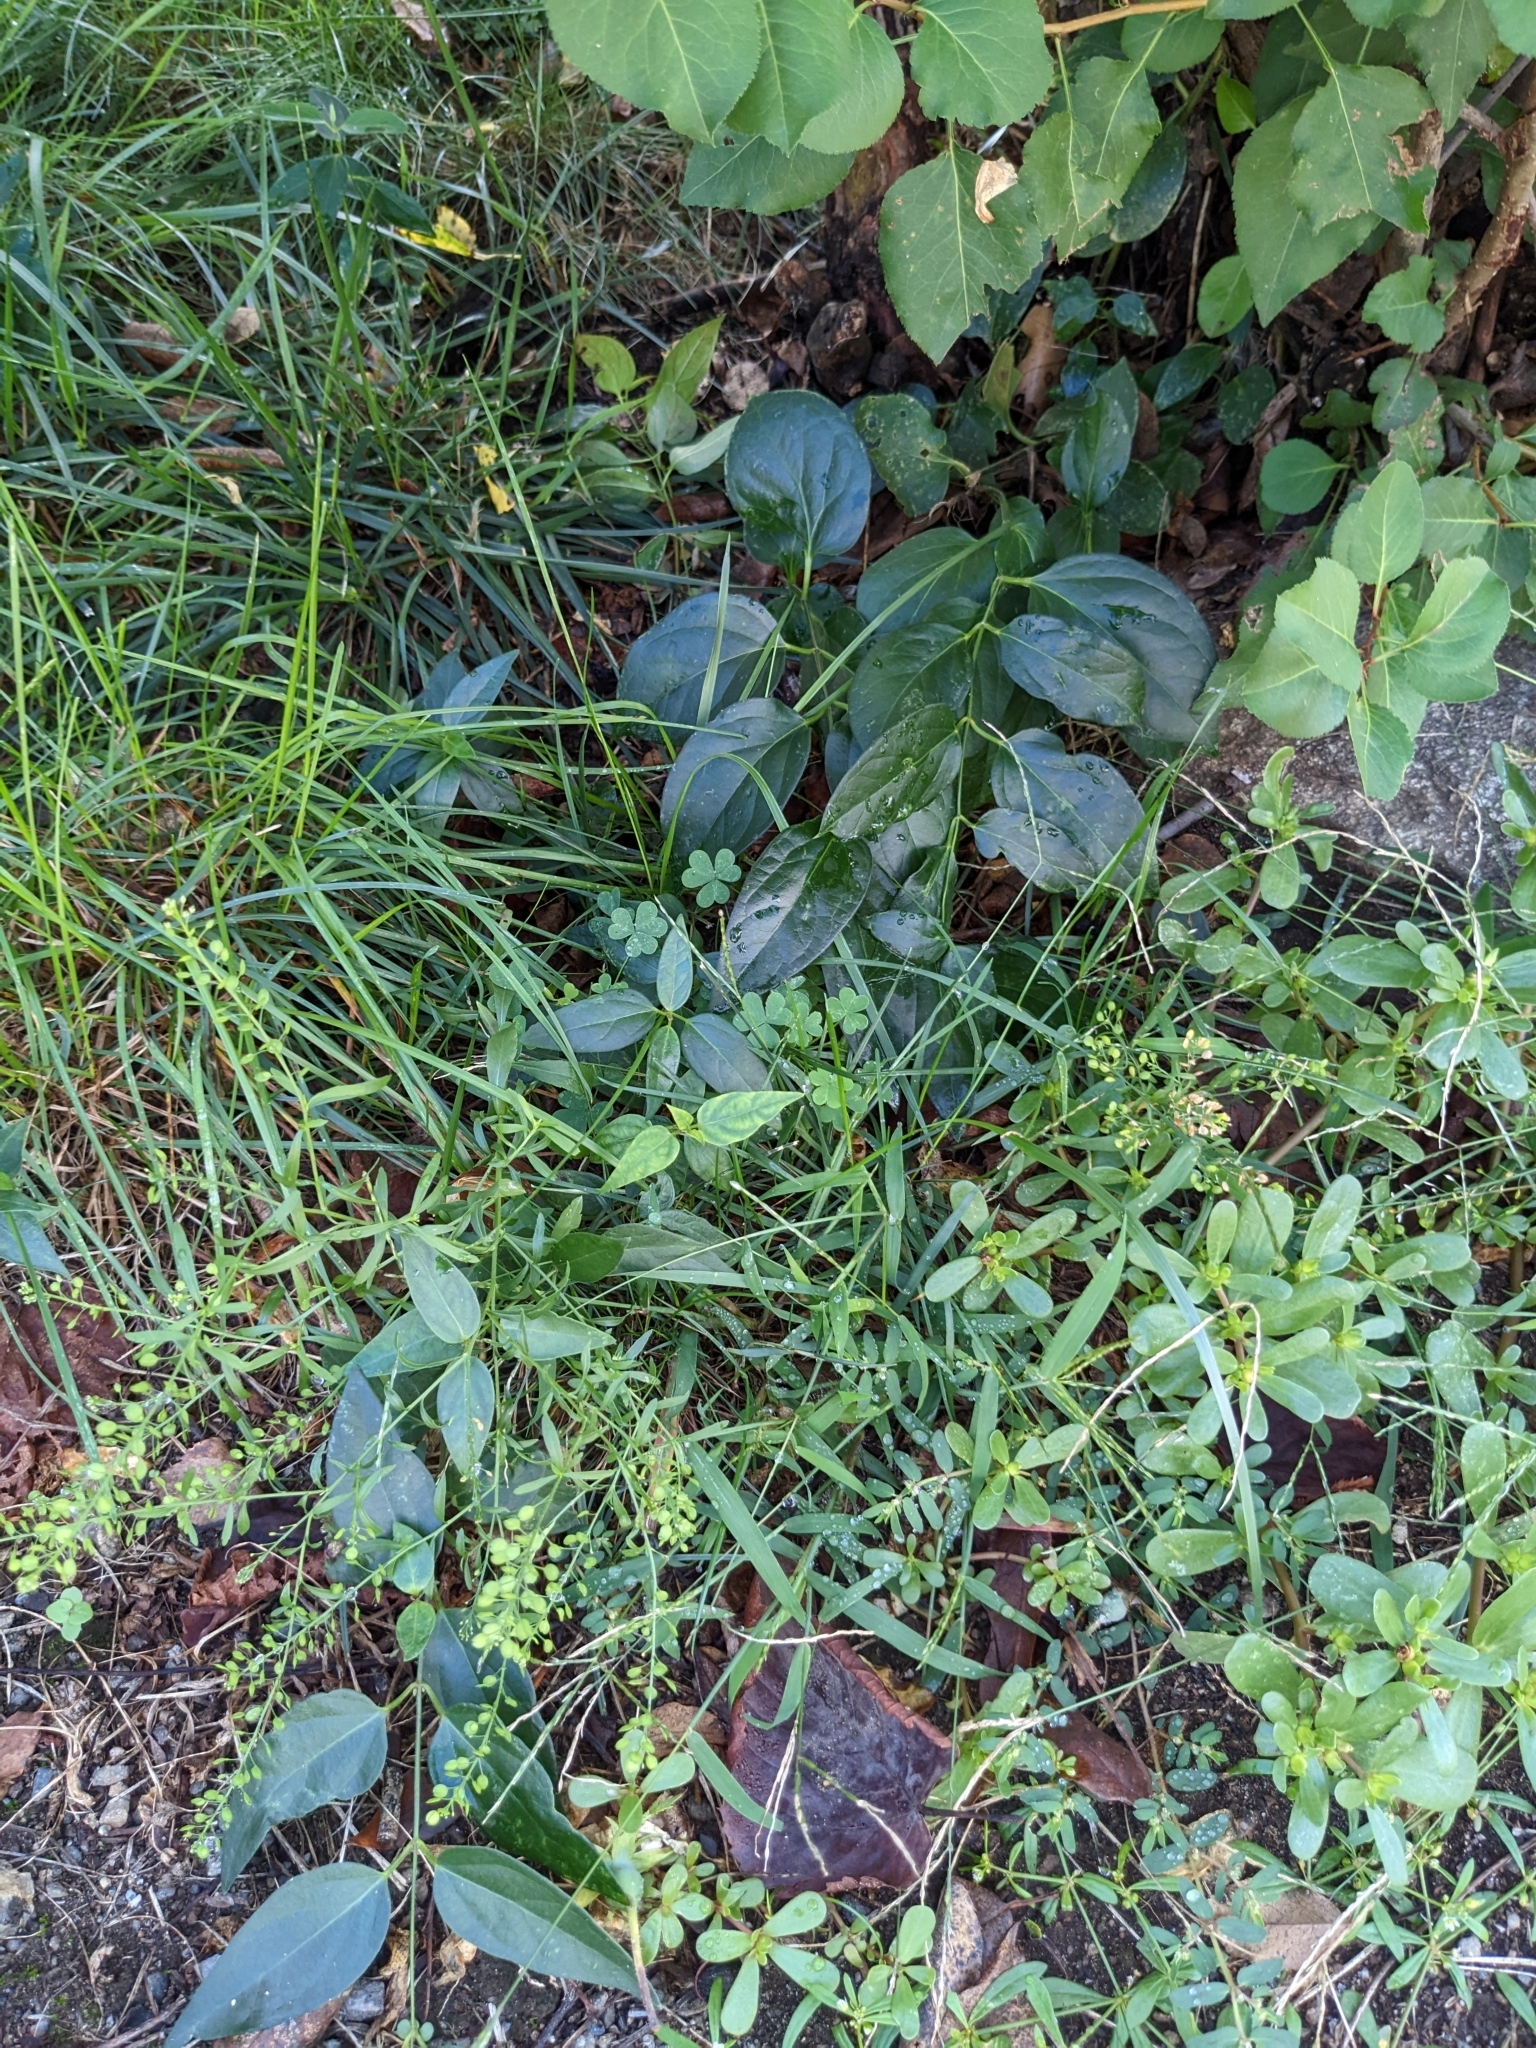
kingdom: Plantae
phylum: Tracheophyta
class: Magnoliopsida
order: Gentianales
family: Apocynaceae
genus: Vincetoxicum
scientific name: Vincetoxicum nigrum
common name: Black swallow-wort
